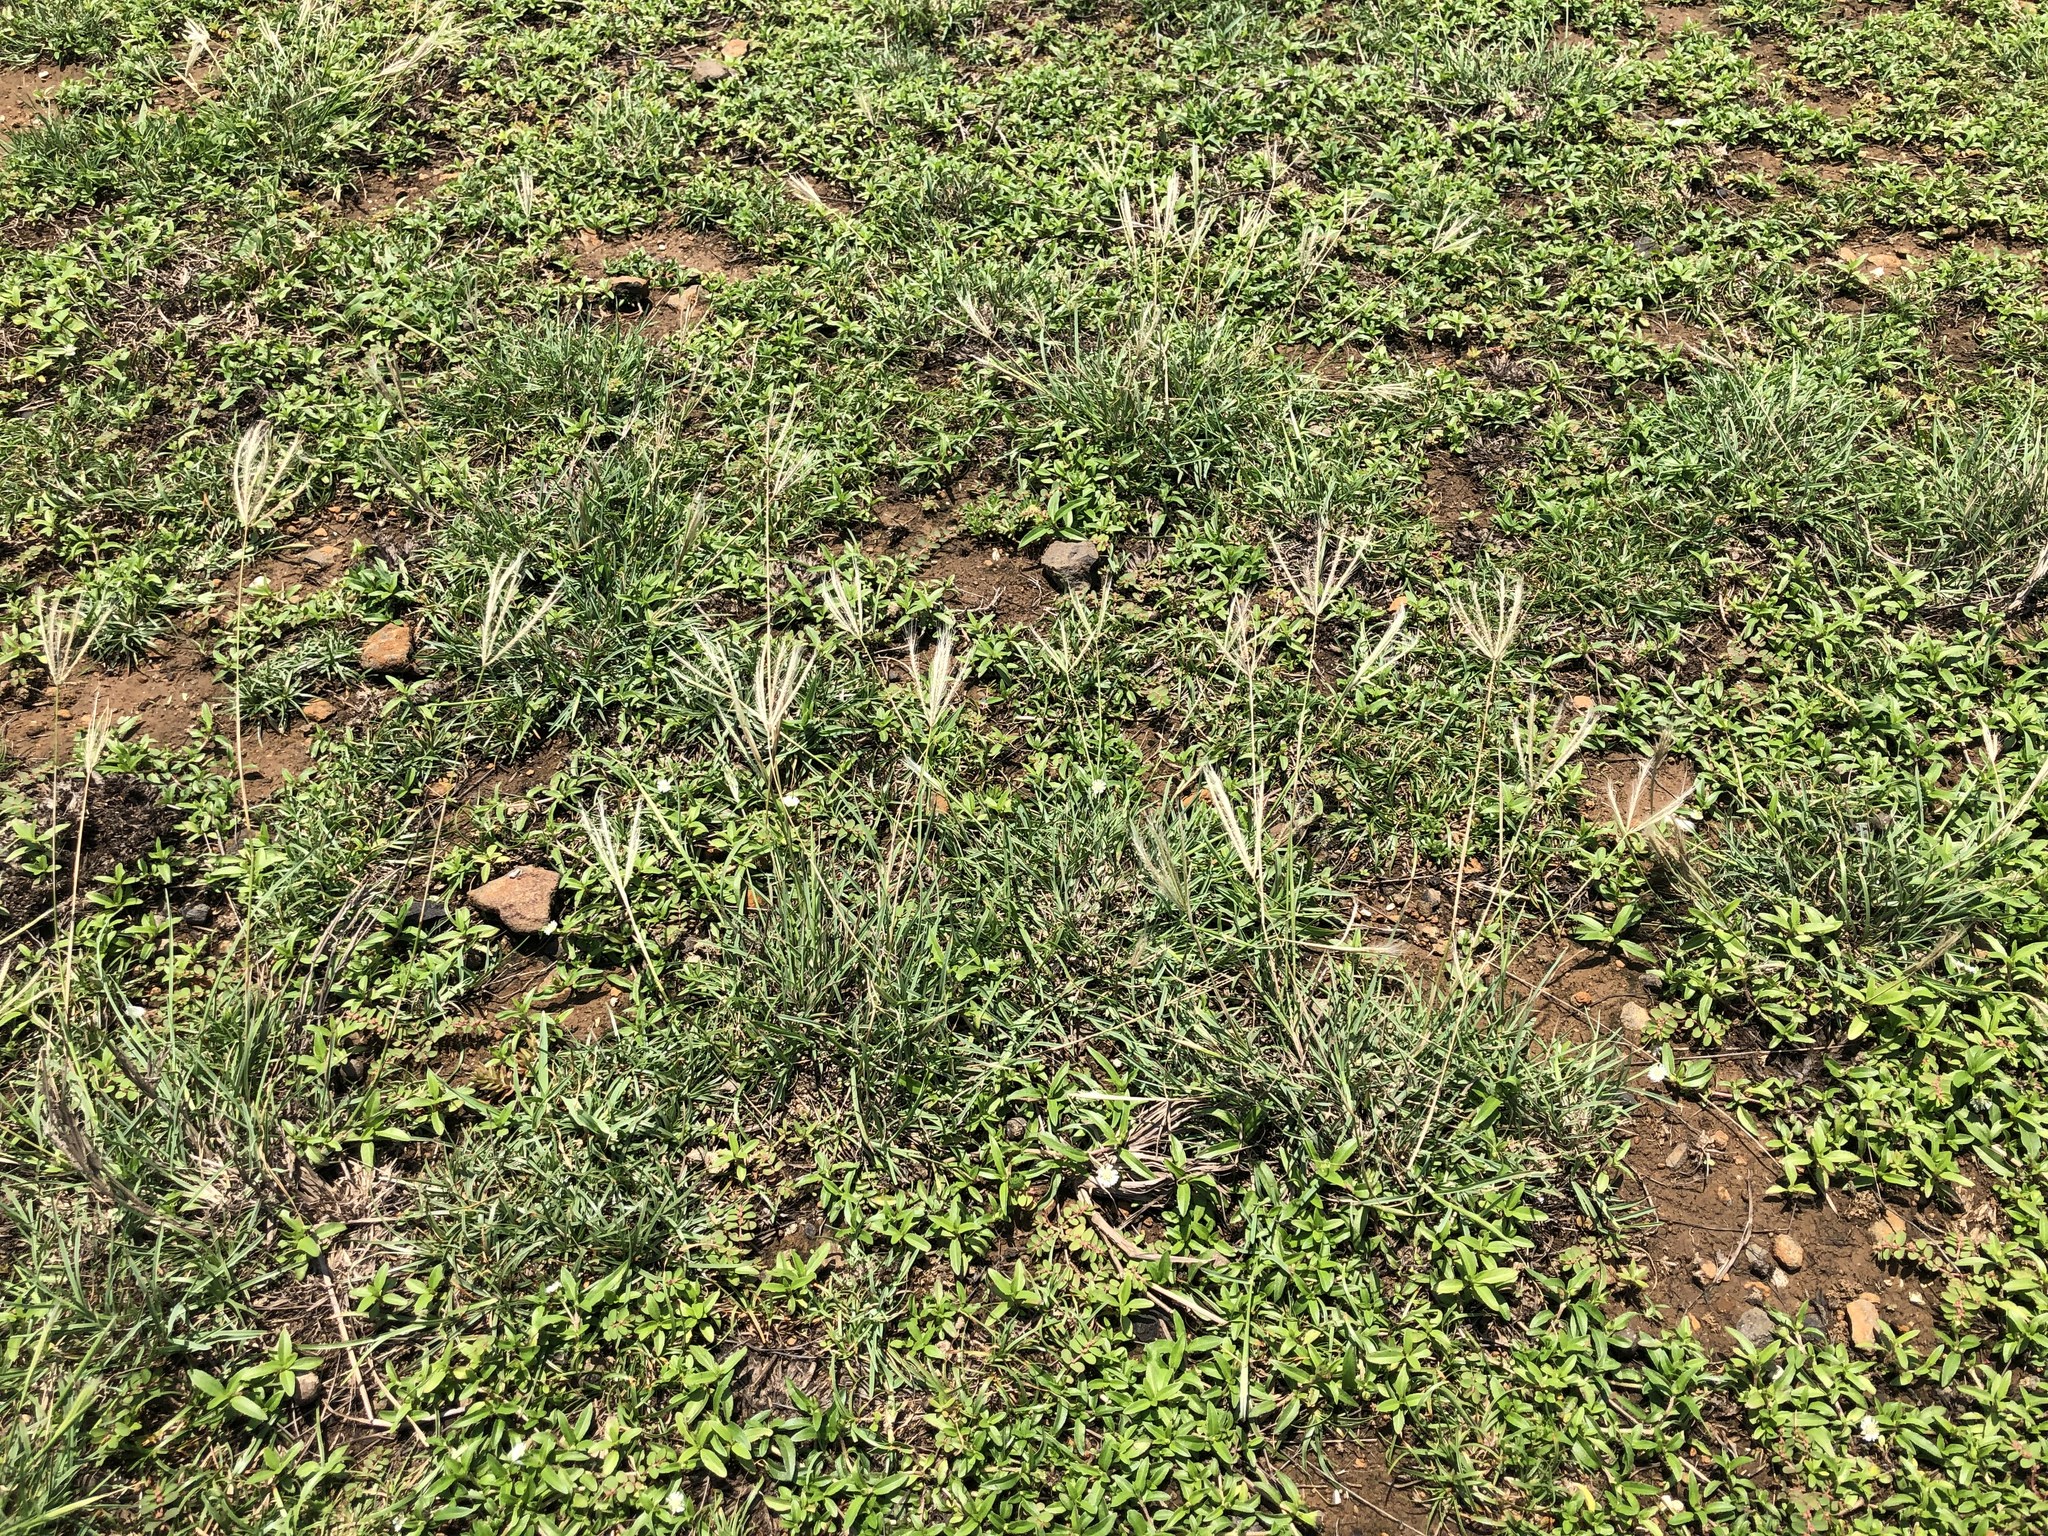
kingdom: Plantae
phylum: Tracheophyta
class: Liliopsida
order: Poales
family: Poaceae
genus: Chloris
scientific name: Chloris divaricata
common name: Spreading windmill grass
